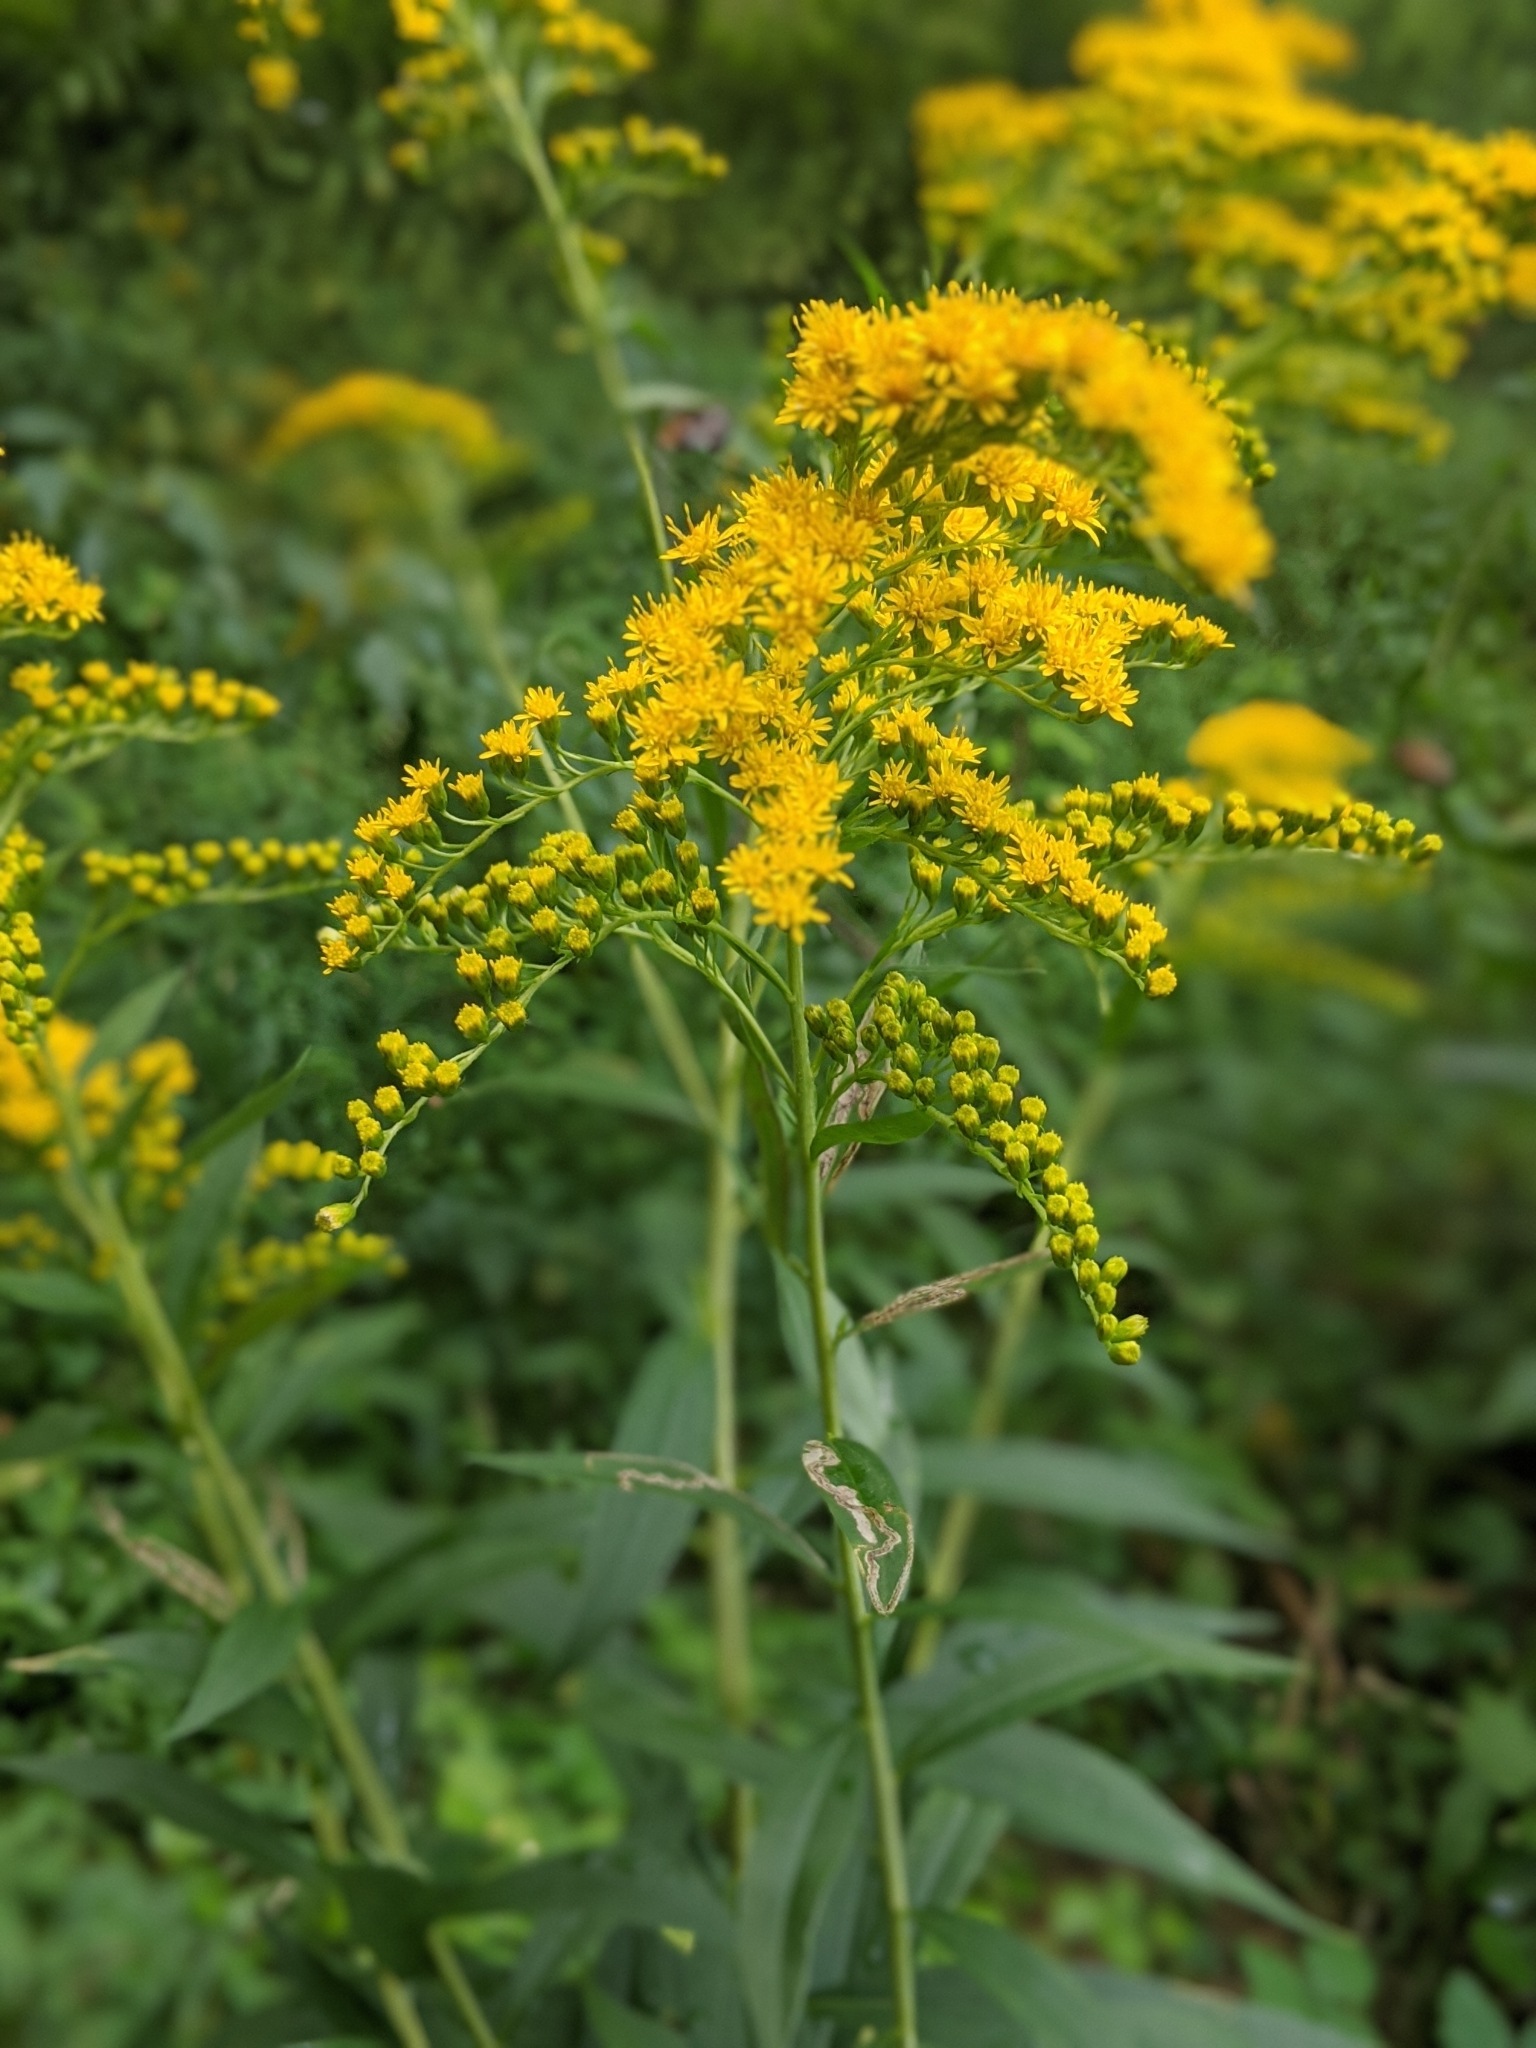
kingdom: Plantae
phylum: Tracheophyta
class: Magnoliopsida
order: Asterales
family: Asteraceae
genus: Solidago
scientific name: Solidago gigantea
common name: Giant goldenrod
